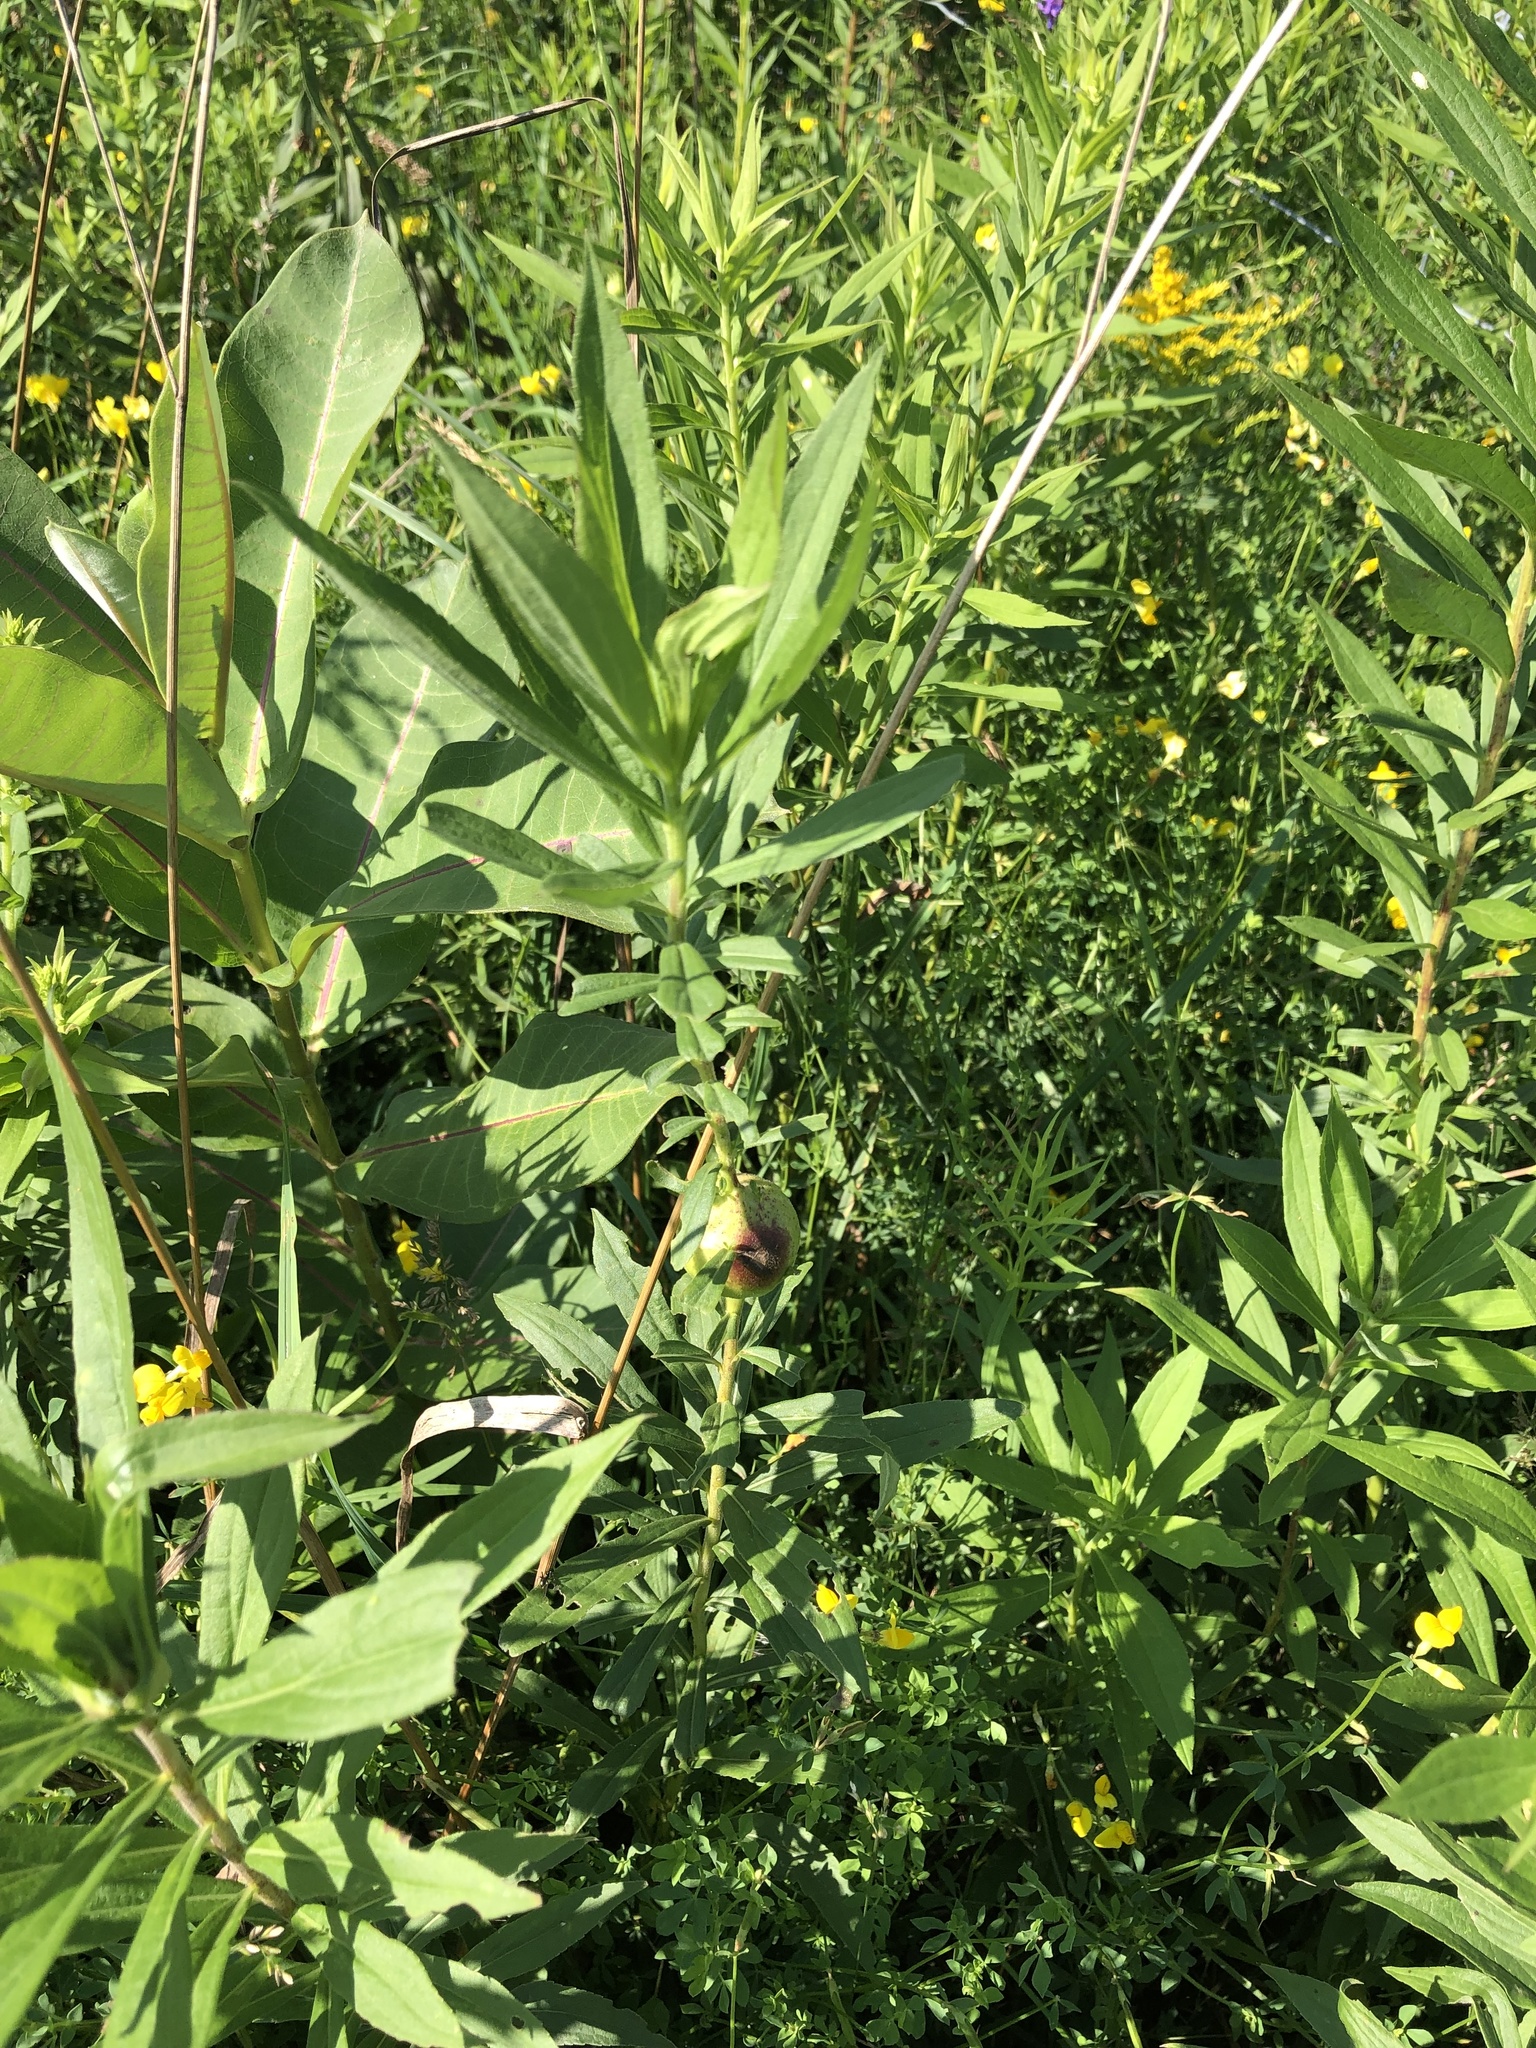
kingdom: Animalia
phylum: Arthropoda
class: Insecta
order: Diptera
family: Tephritidae
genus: Eurosta
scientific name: Eurosta solidaginis
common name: Goldenrod gall fly
